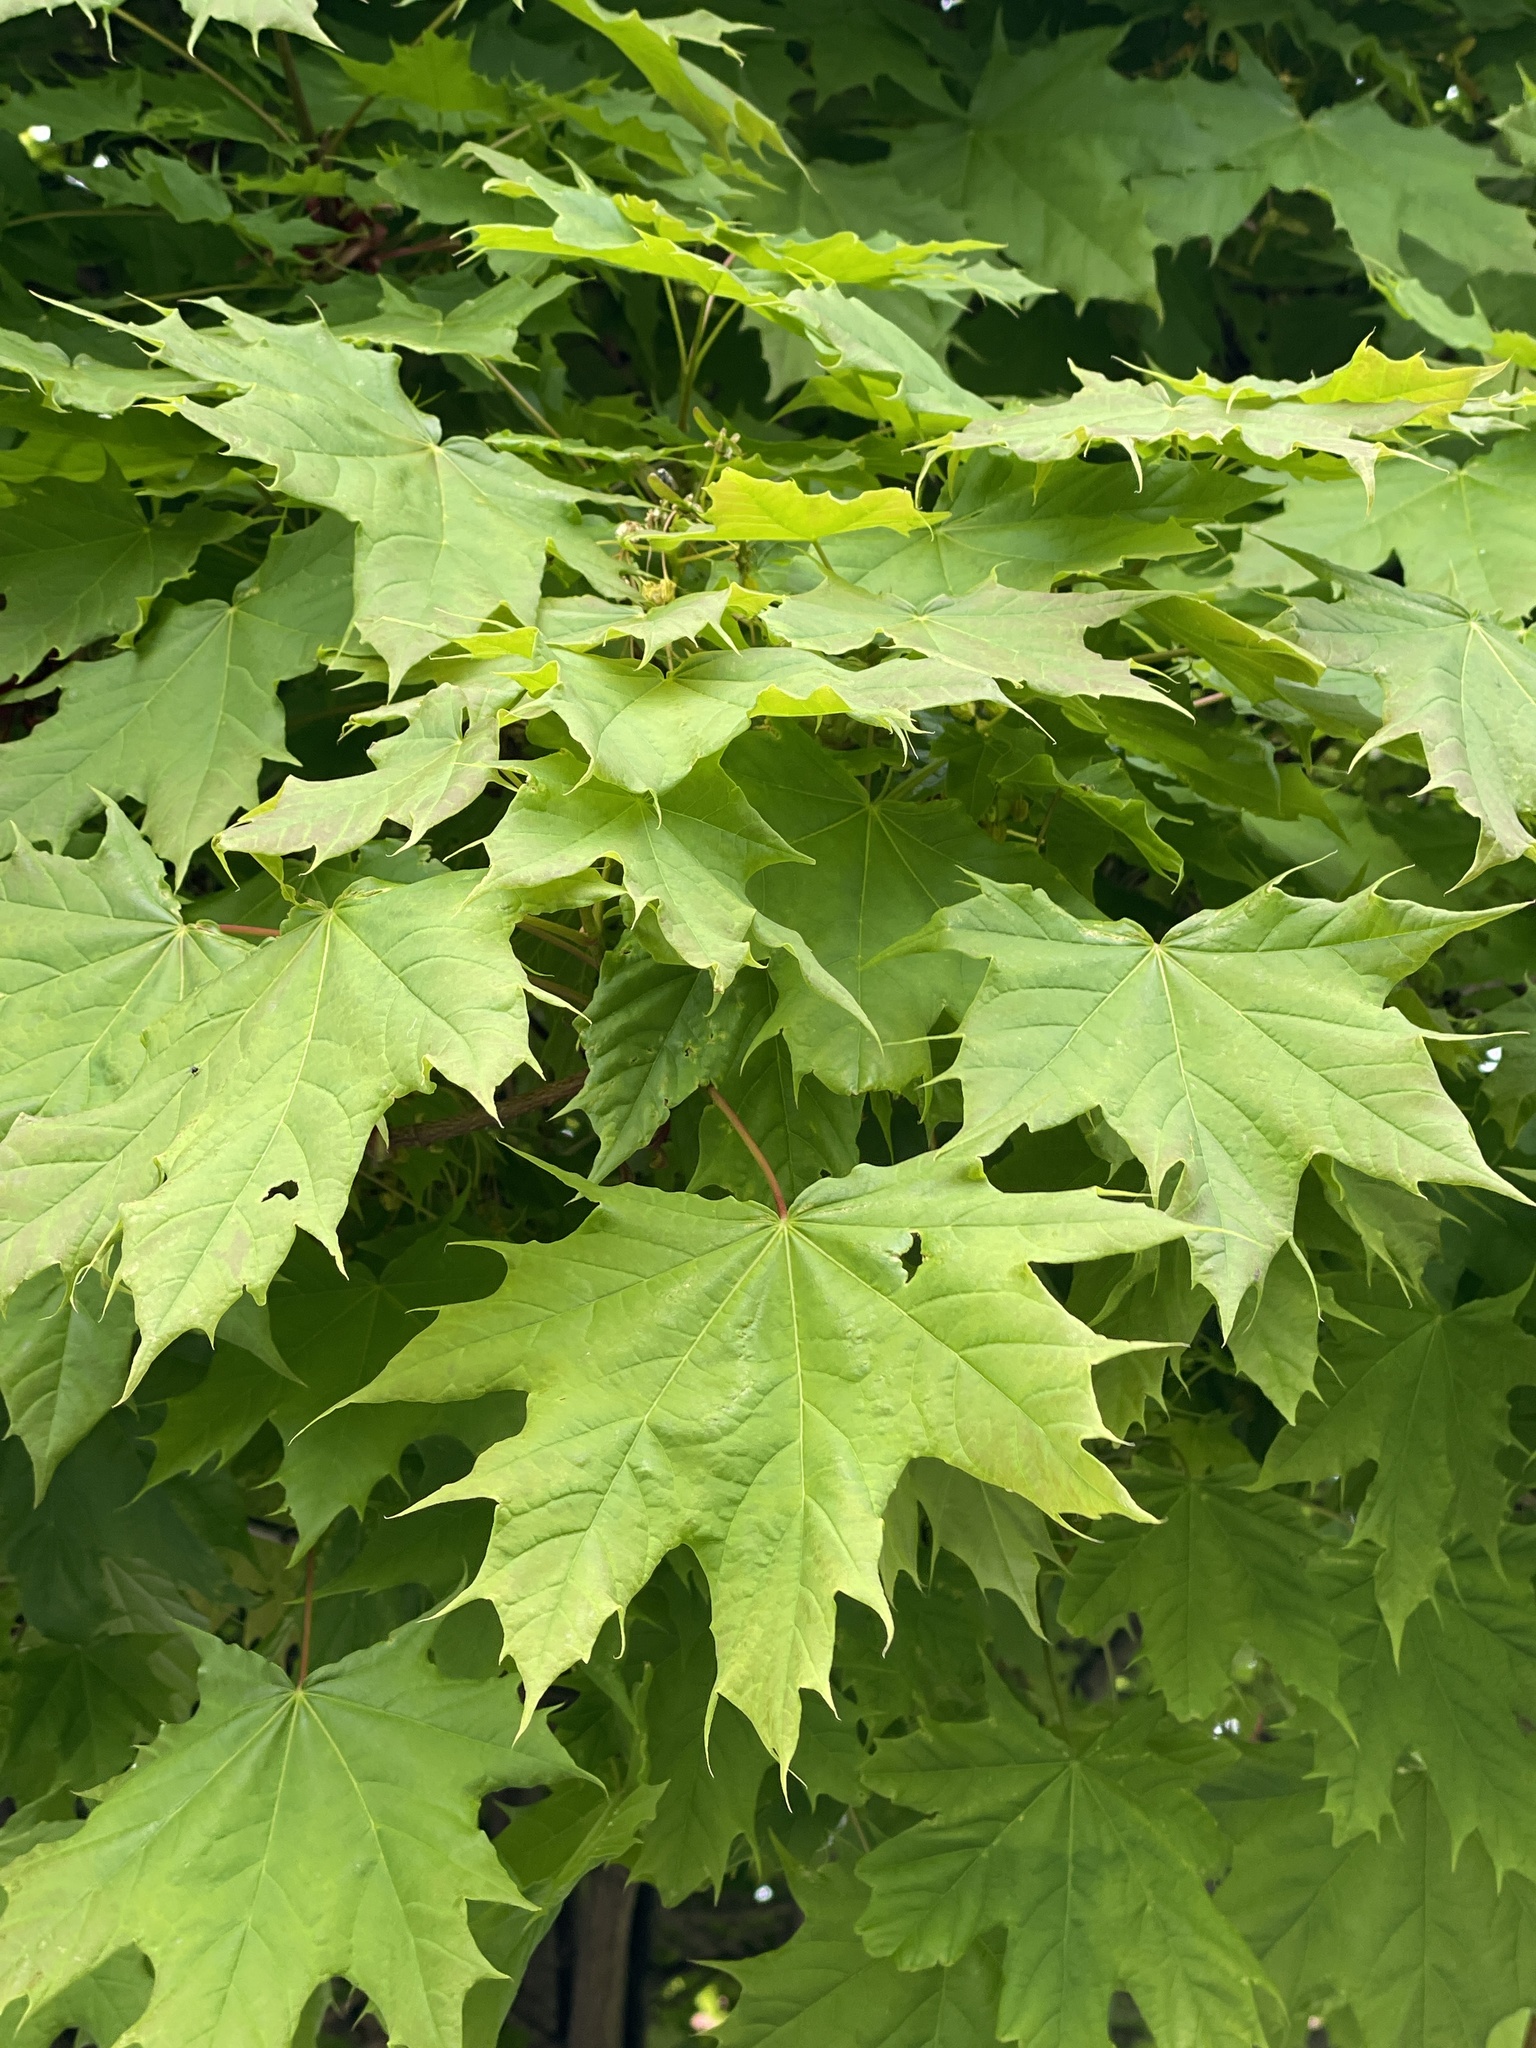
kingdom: Plantae
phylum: Tracheophyta
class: Magnoliopsida
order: Sapindales
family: Sapindaceae
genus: Acer
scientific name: Acer platanoides
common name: Norway maple
